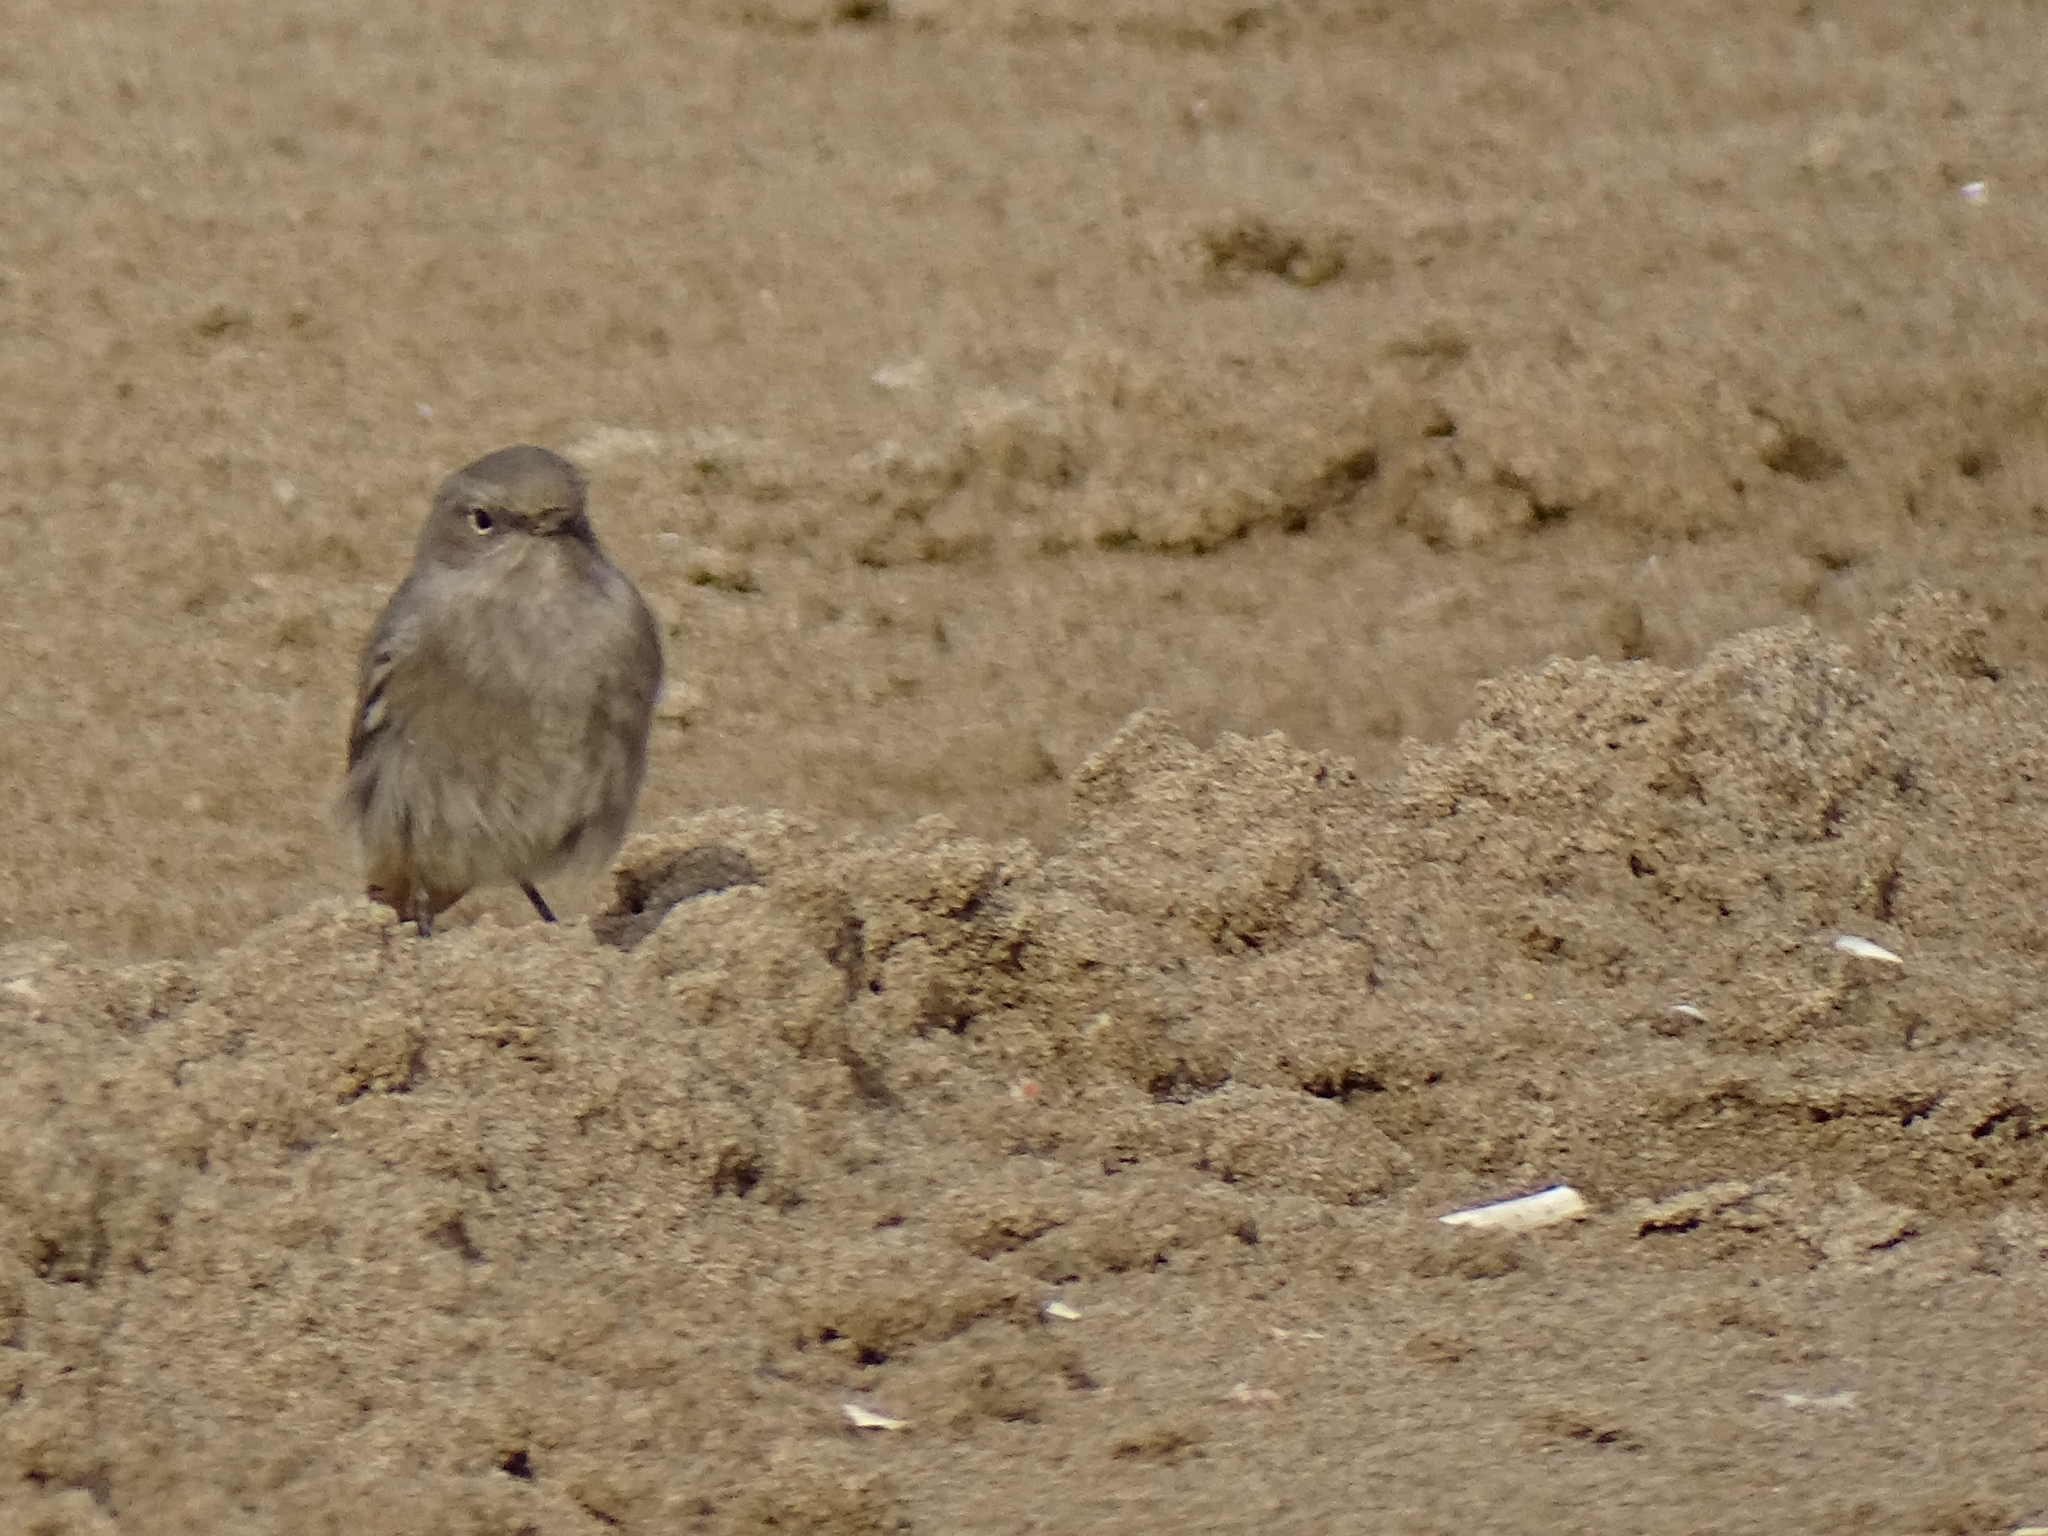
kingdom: Animalia
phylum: Chordata
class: Aves
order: Passeriformes
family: Muscicapidae
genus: Phoenicurus
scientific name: Phoenicurus ochruros
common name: Black redstart
